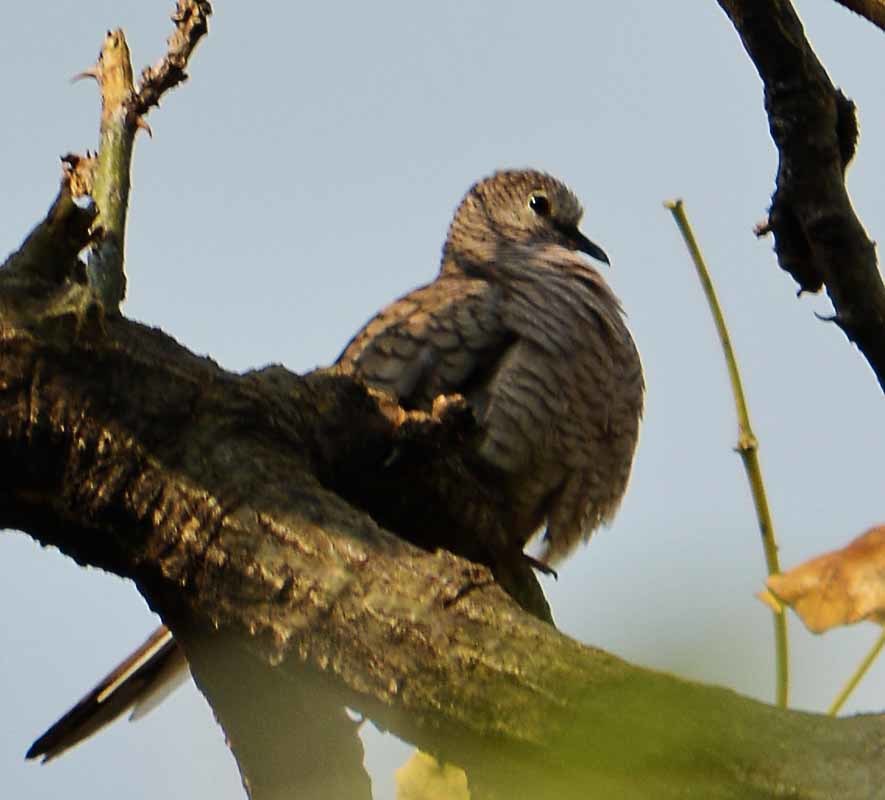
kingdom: Animalia
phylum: Chordata
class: Aves
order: Columbiformes
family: Columbidae
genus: Columbina
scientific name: Columbina inca
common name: Inca dove
